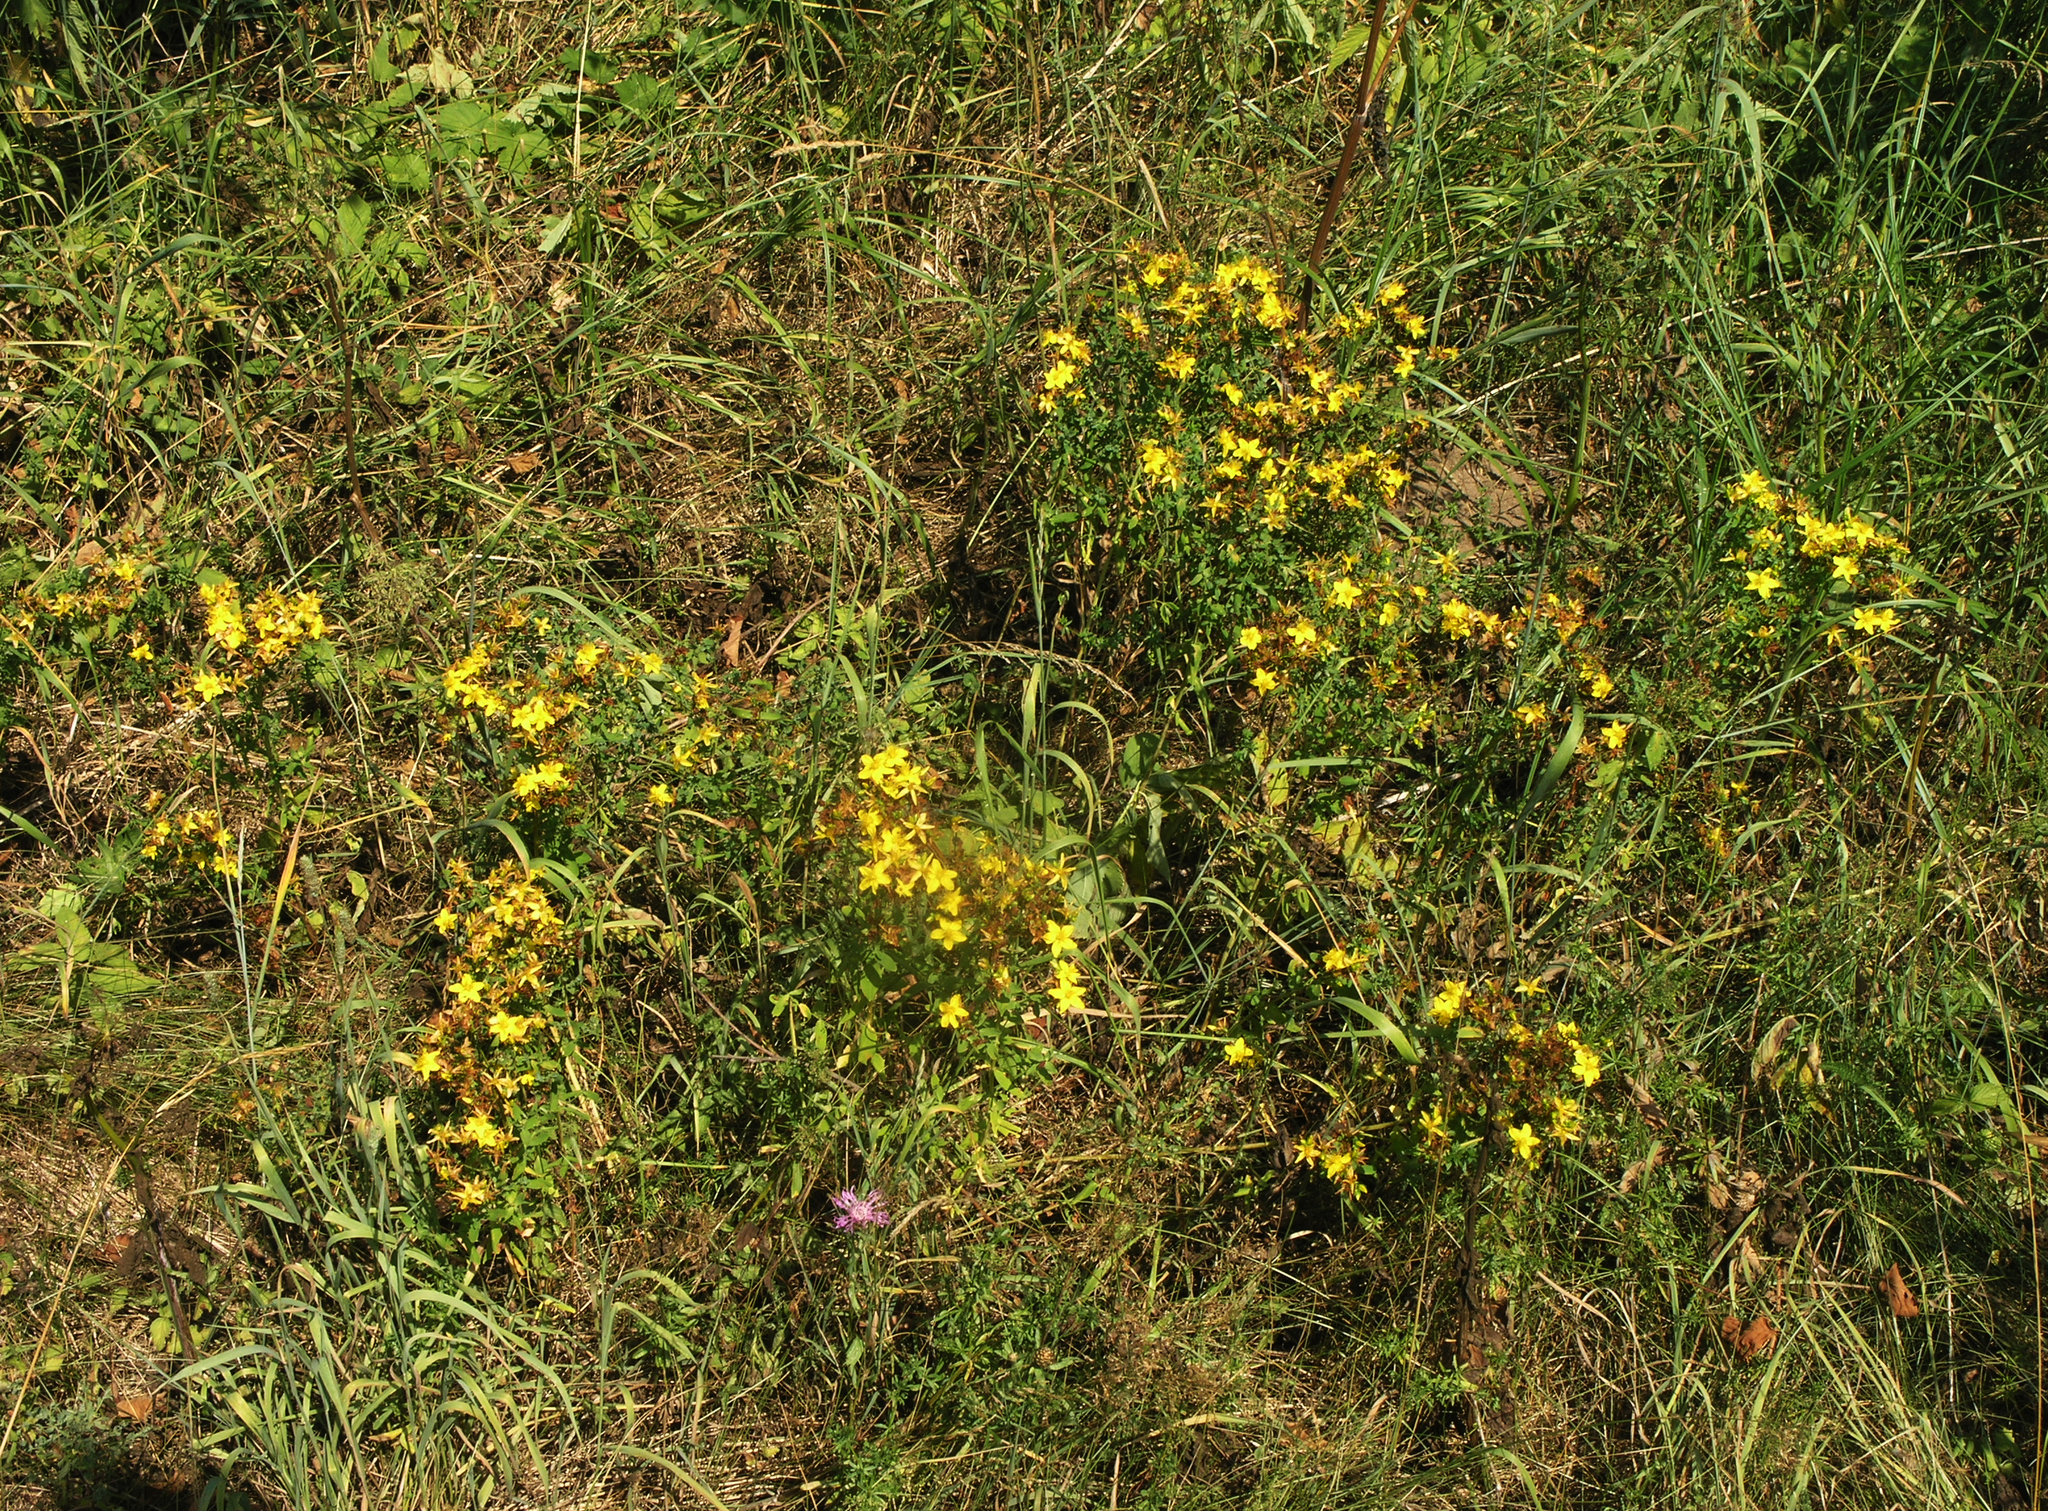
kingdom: Plantae
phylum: Tracheophyta
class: Magnoliopsida
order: Malpighiales
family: Hypericaceae
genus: Hypericum
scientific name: Hypericum perforatum
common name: Common st. johnswort
